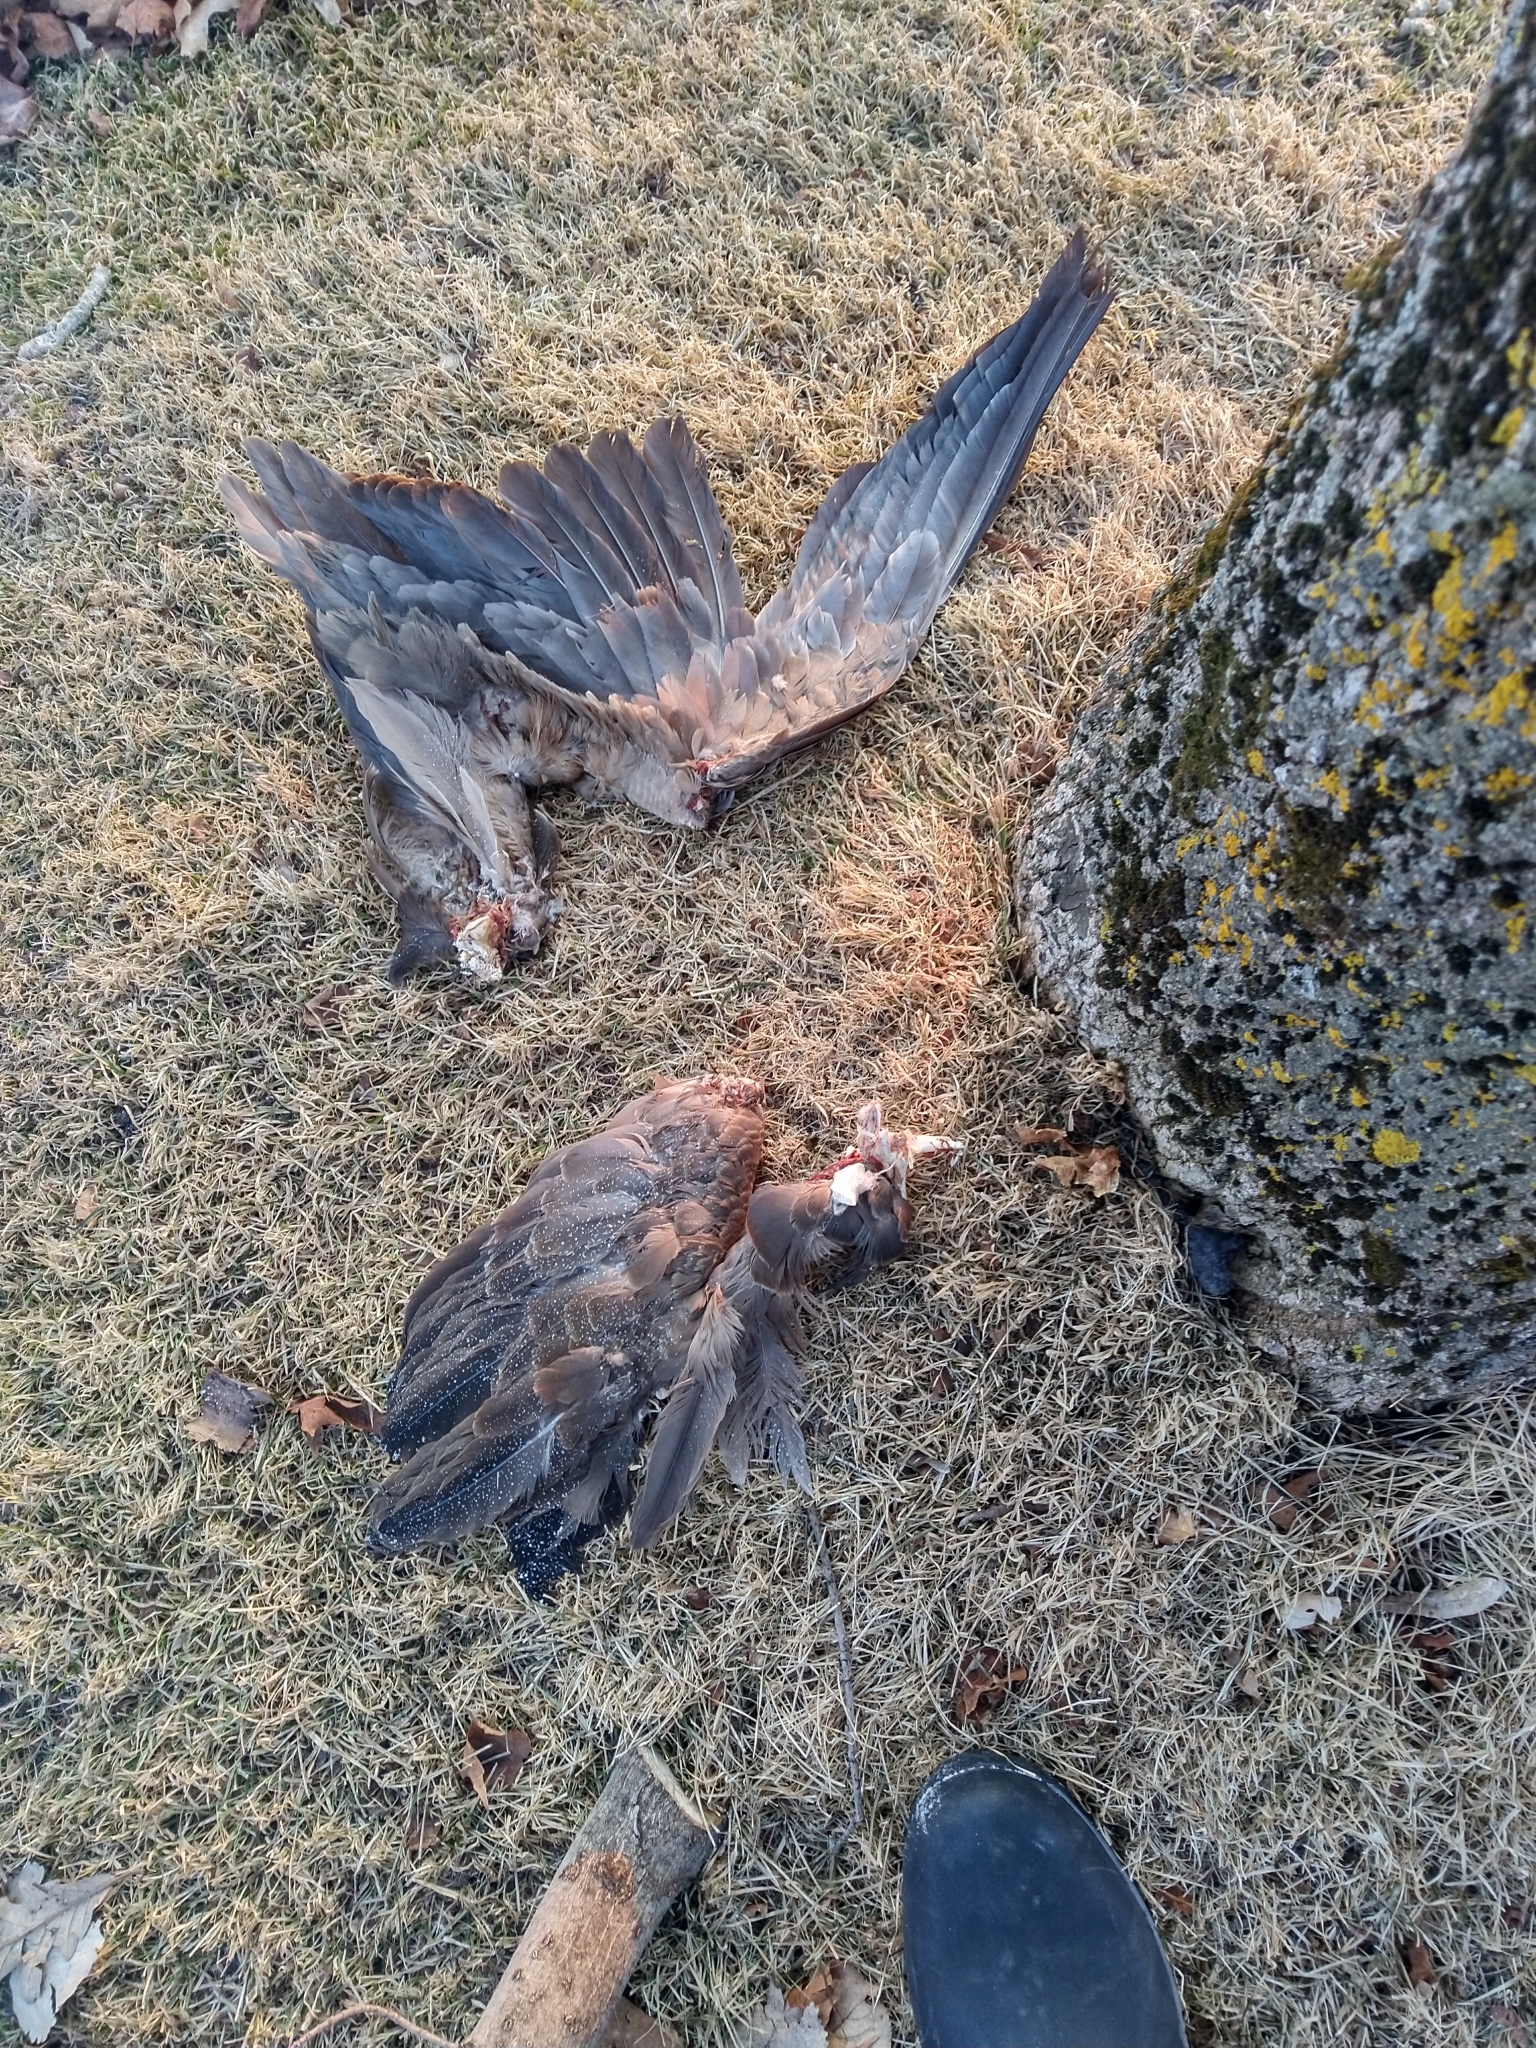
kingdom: Animalia
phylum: Chordata
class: Aves
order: Anseriformes
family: Anatidae
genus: Branta
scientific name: Branta canadensis
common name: Canada goose
